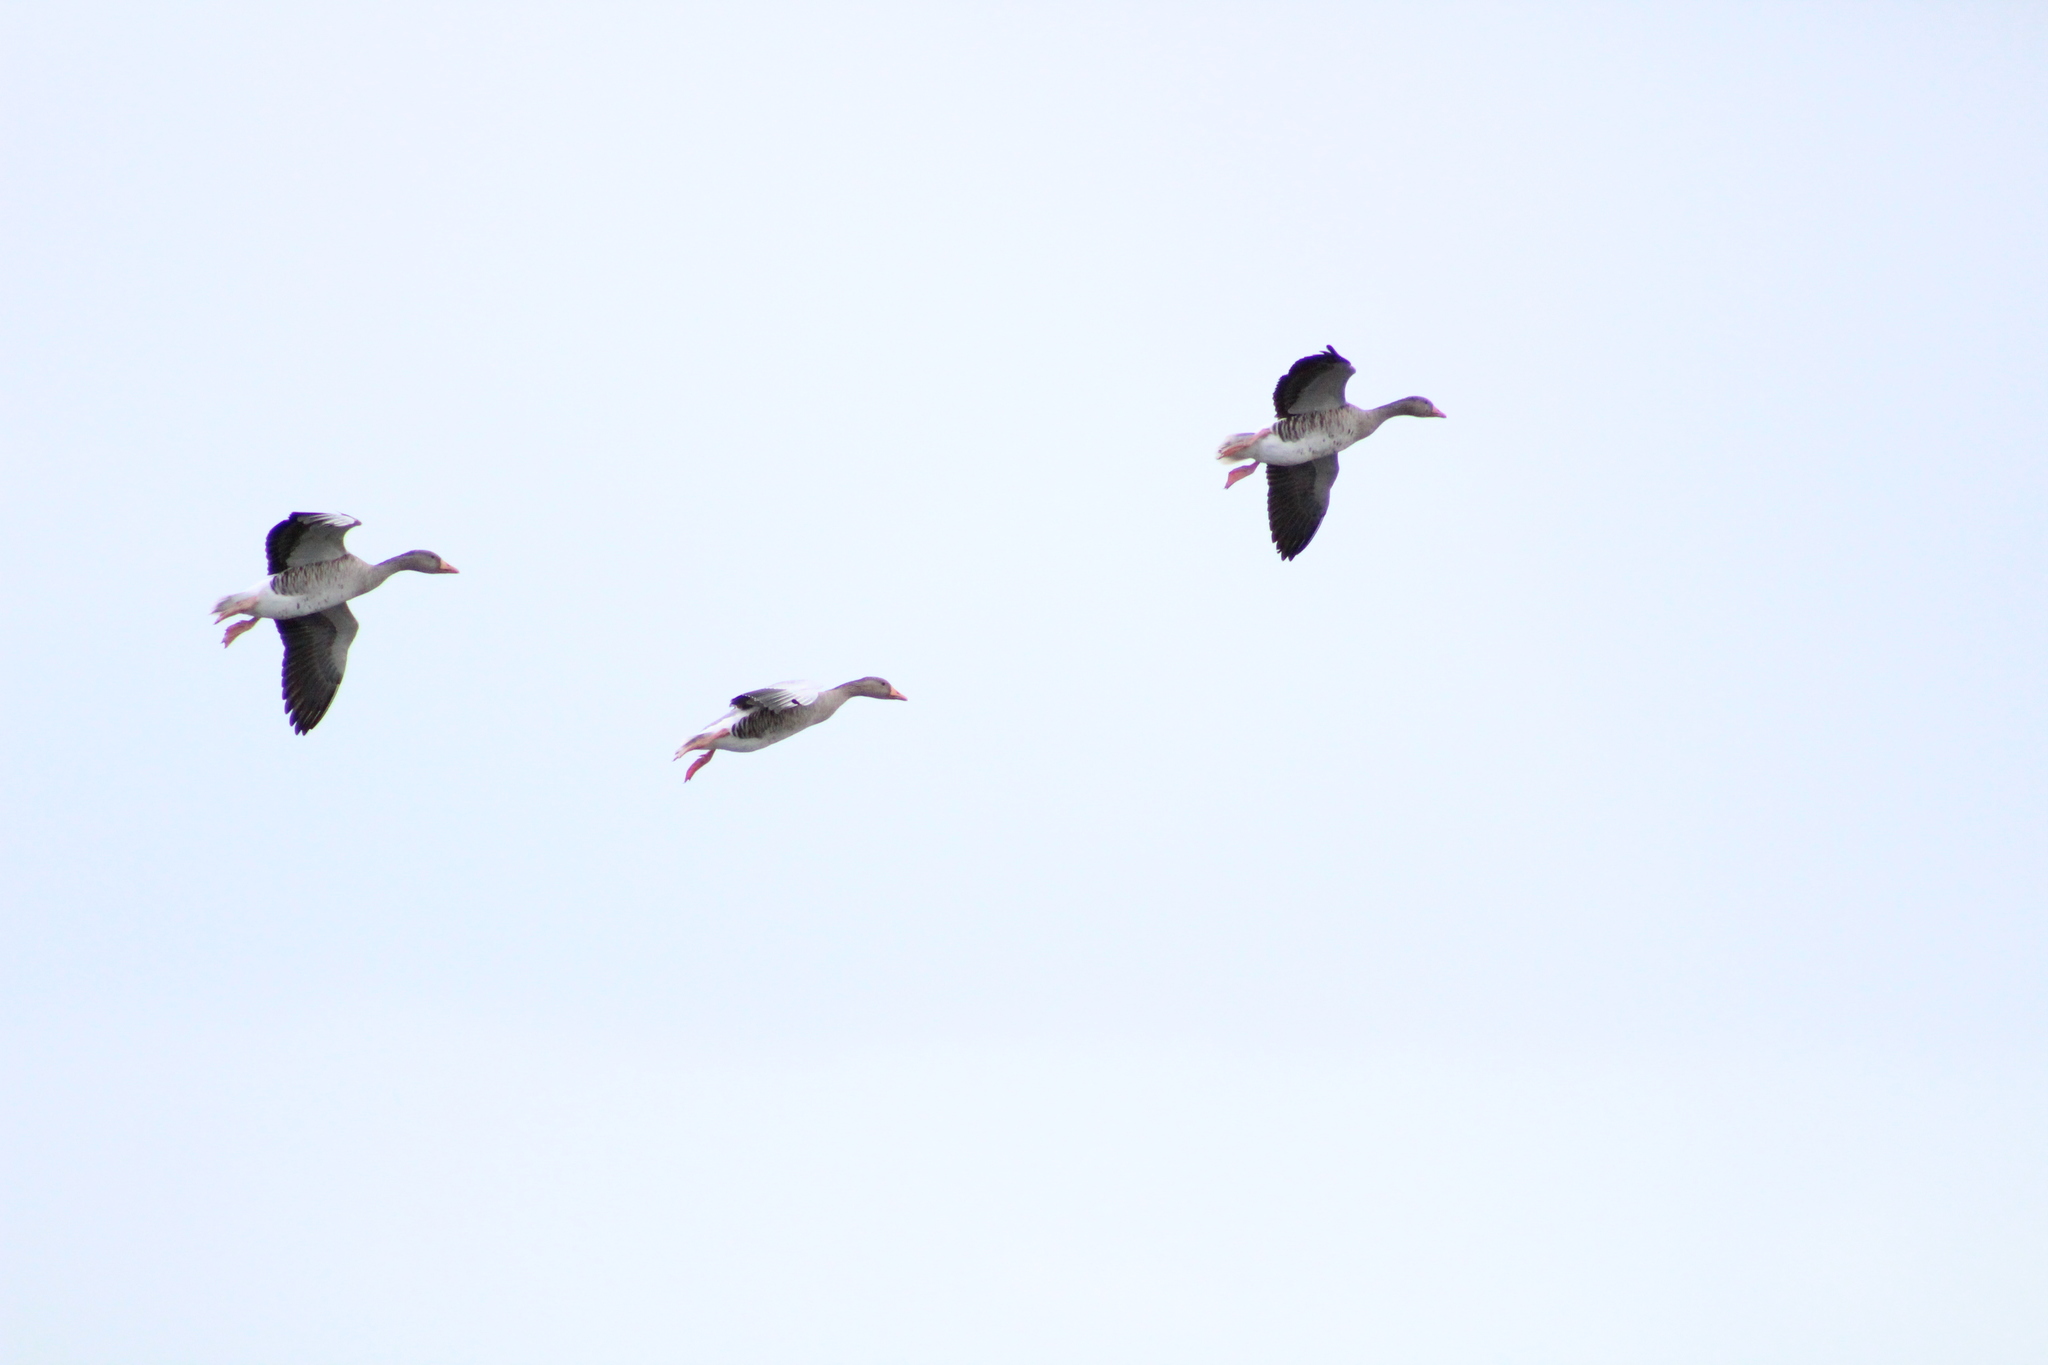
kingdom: Animalia
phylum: Chordata
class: Aves
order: Anseriformes
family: Anatidae
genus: Anser
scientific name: Anser anser
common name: Greylag goose
